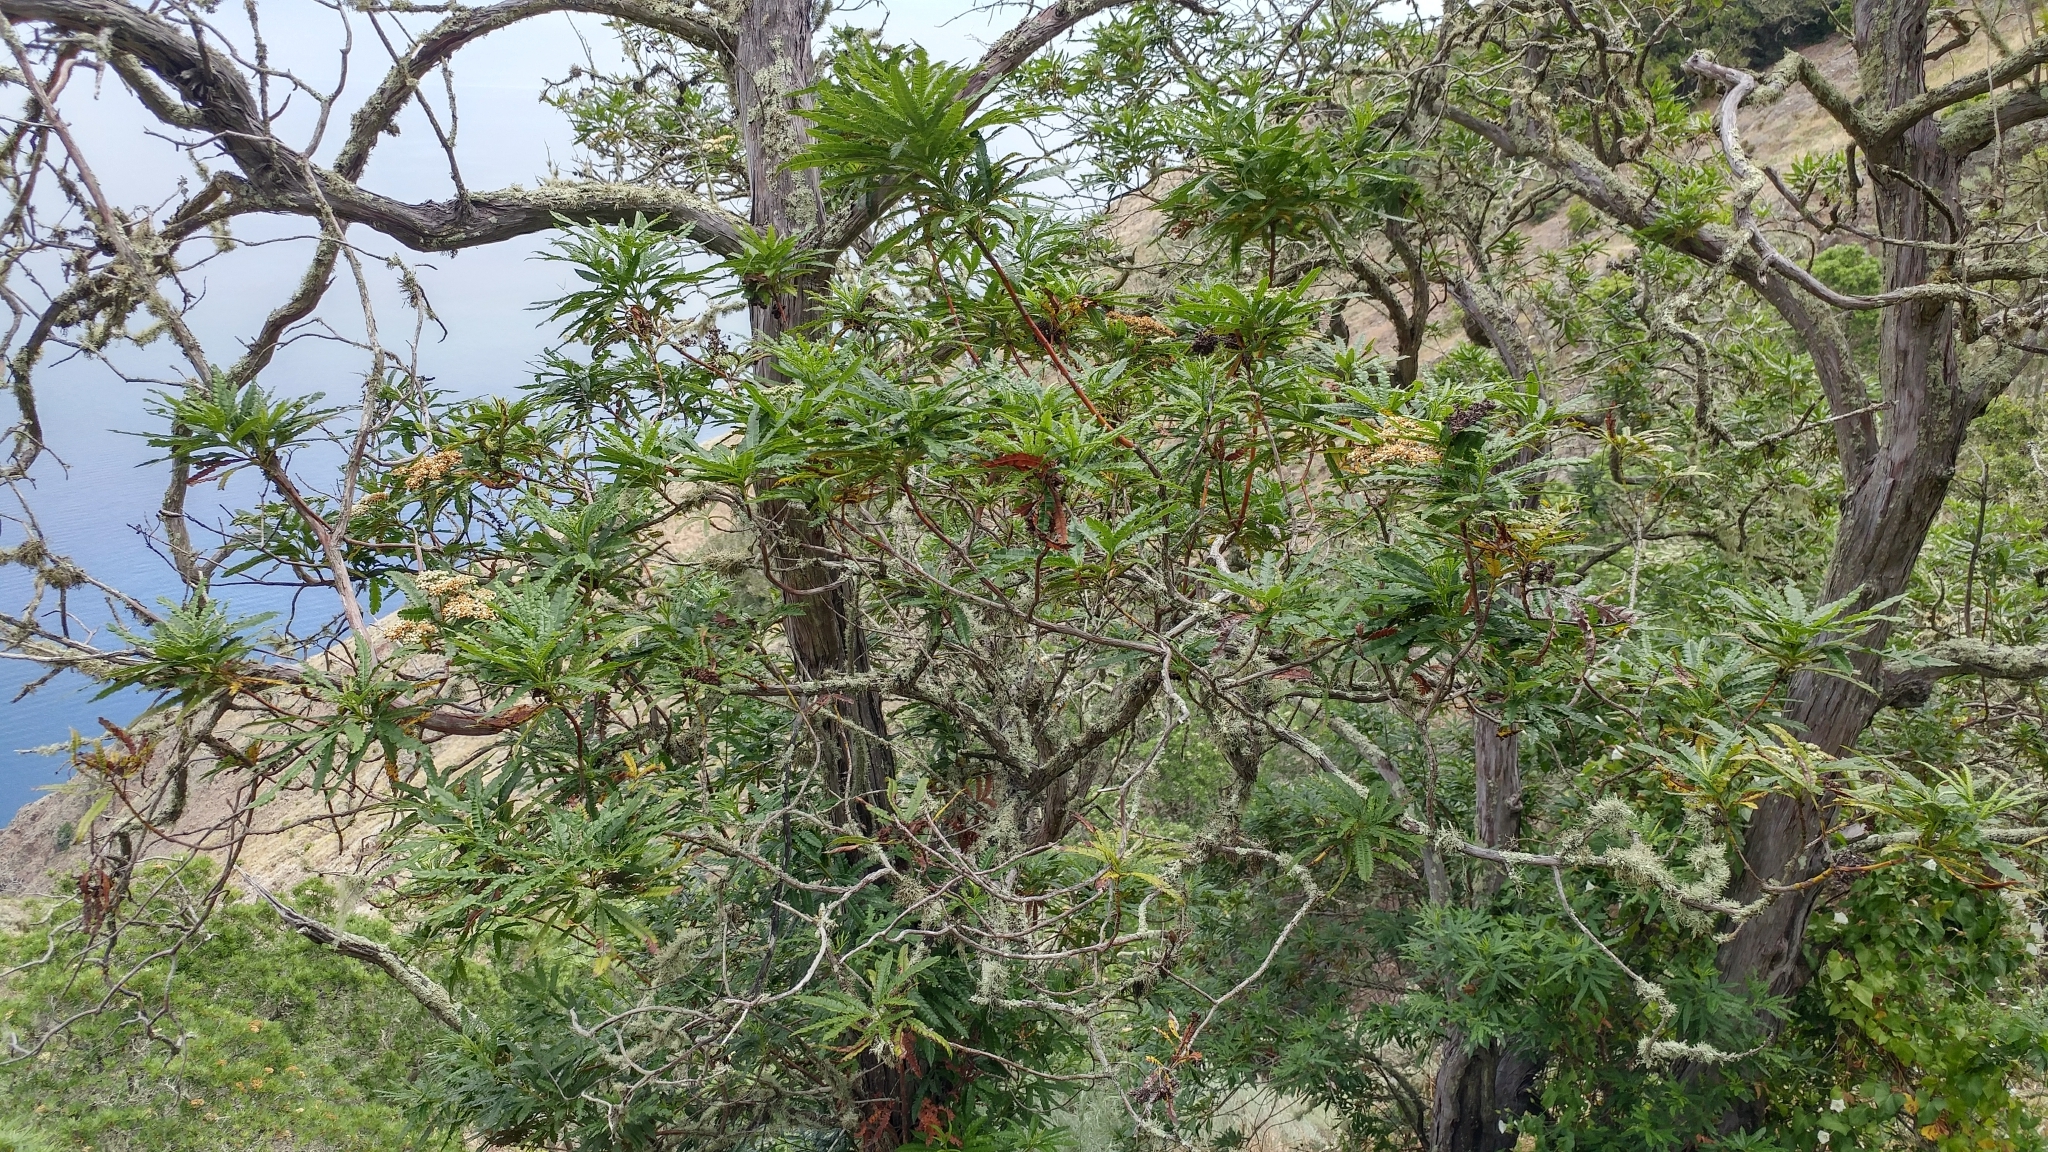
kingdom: Plantae
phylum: Tracheophyta
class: Magnoliopsida
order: Rosales
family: Rosaceae
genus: Lyonothamnus
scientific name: Lyonothamnus floribundus
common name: Catalina ironwood
